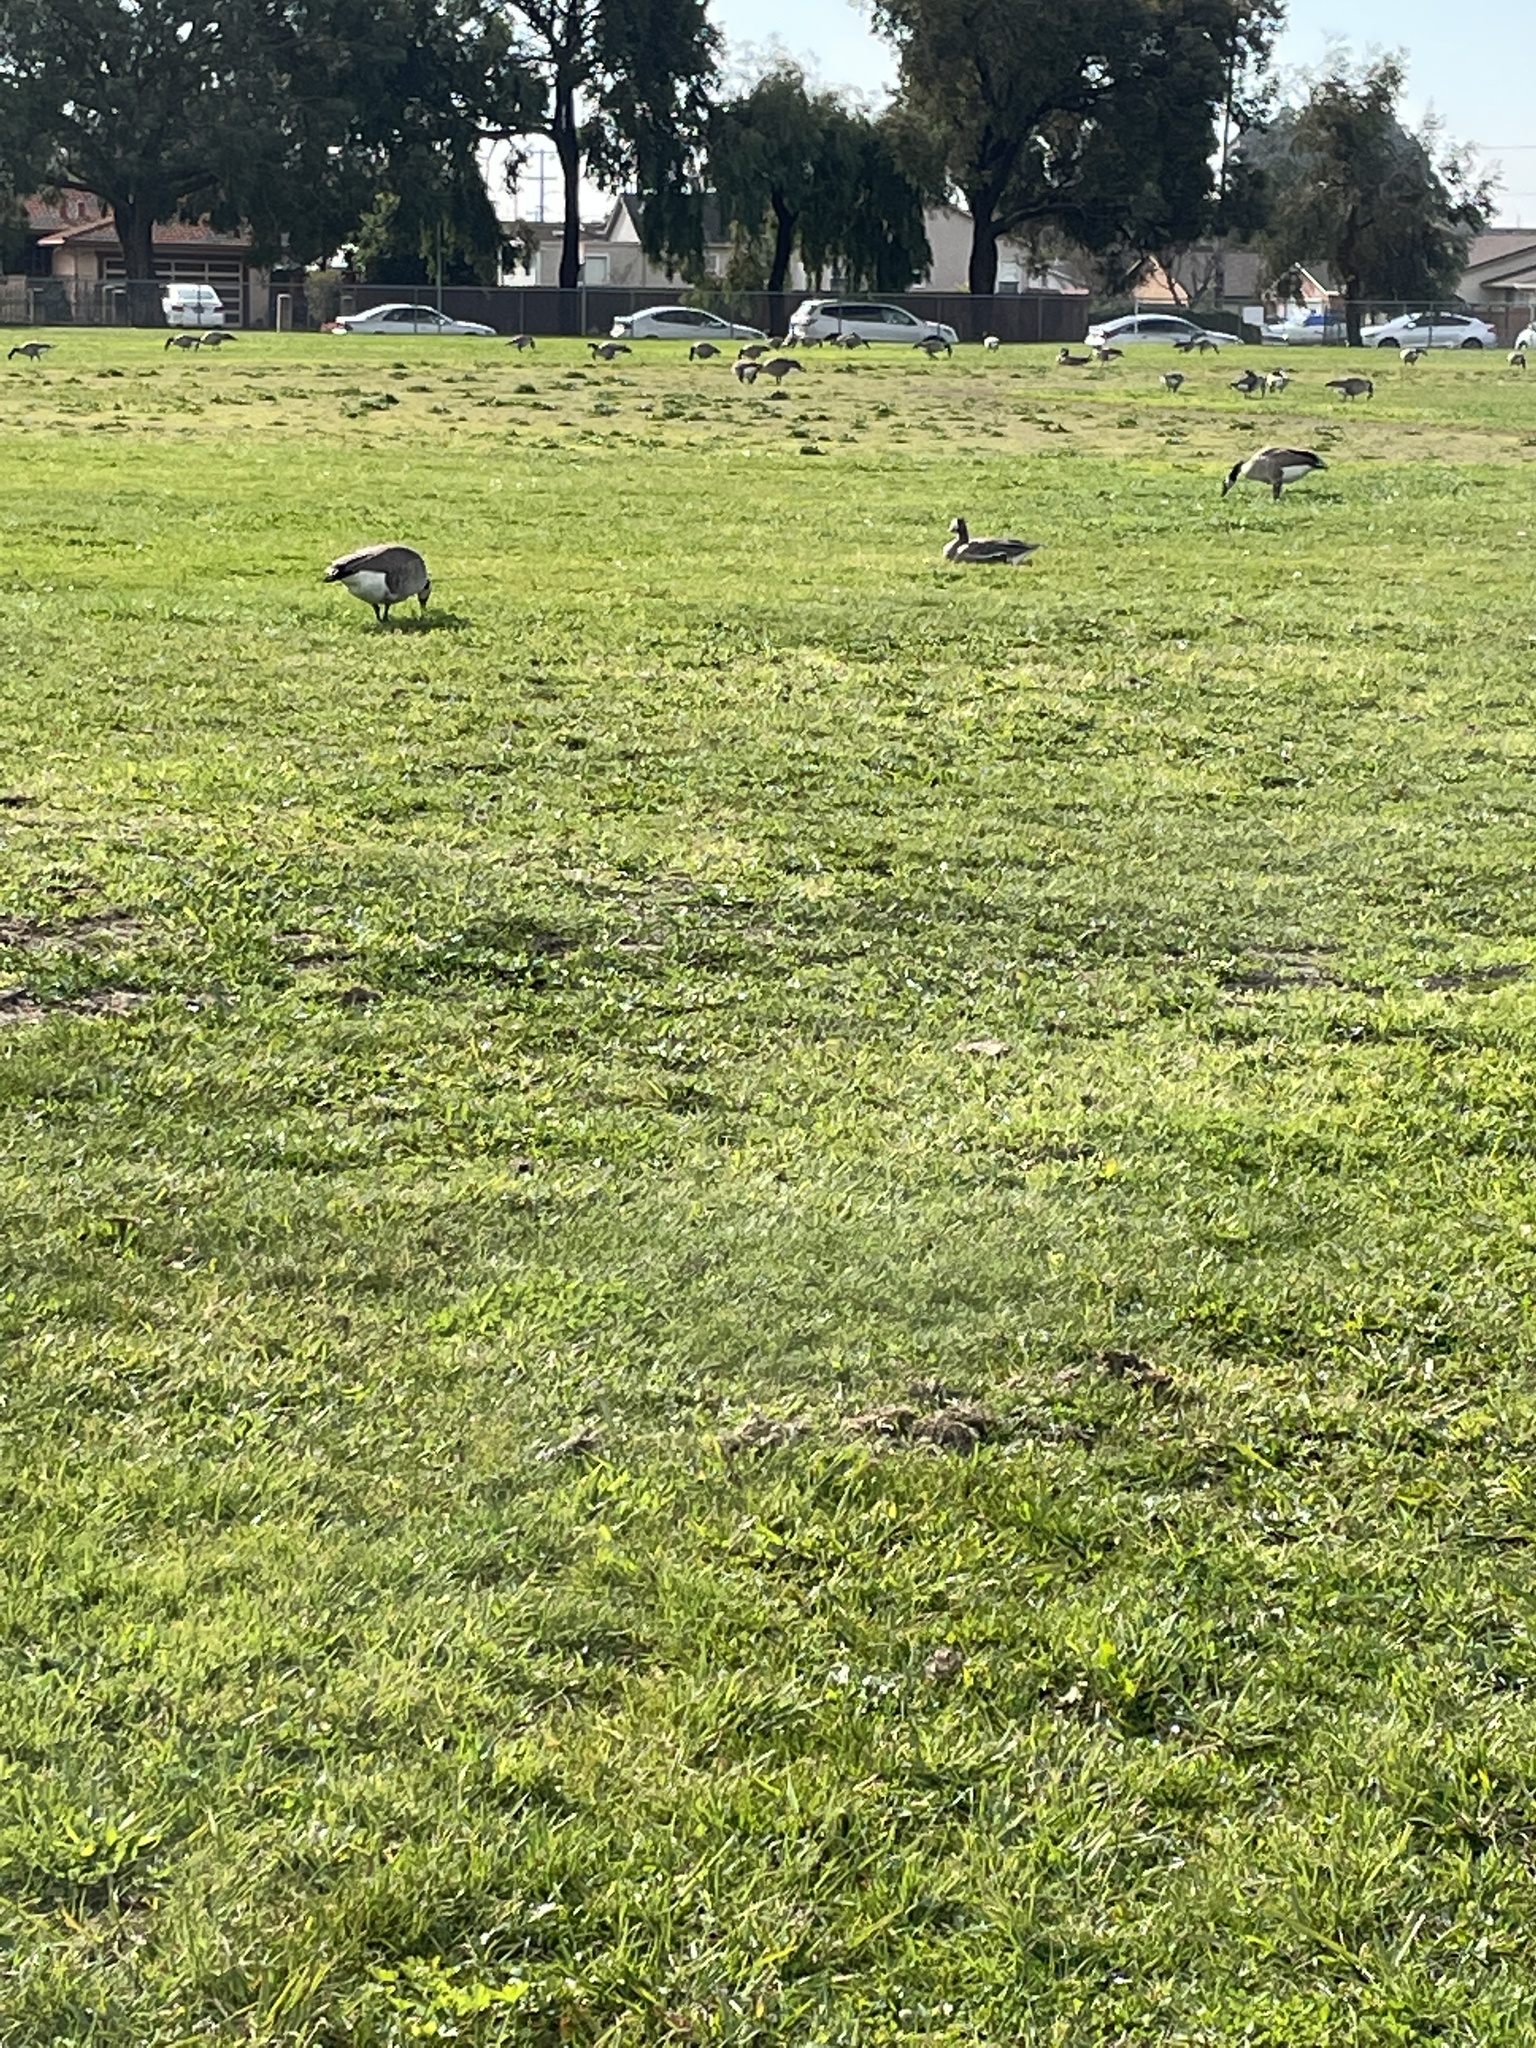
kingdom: Animalia
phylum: Chordata
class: Aves
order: Anseriformes
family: Anatidae
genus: Anser
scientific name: Anser albifrons
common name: Greater white-fronted goose
